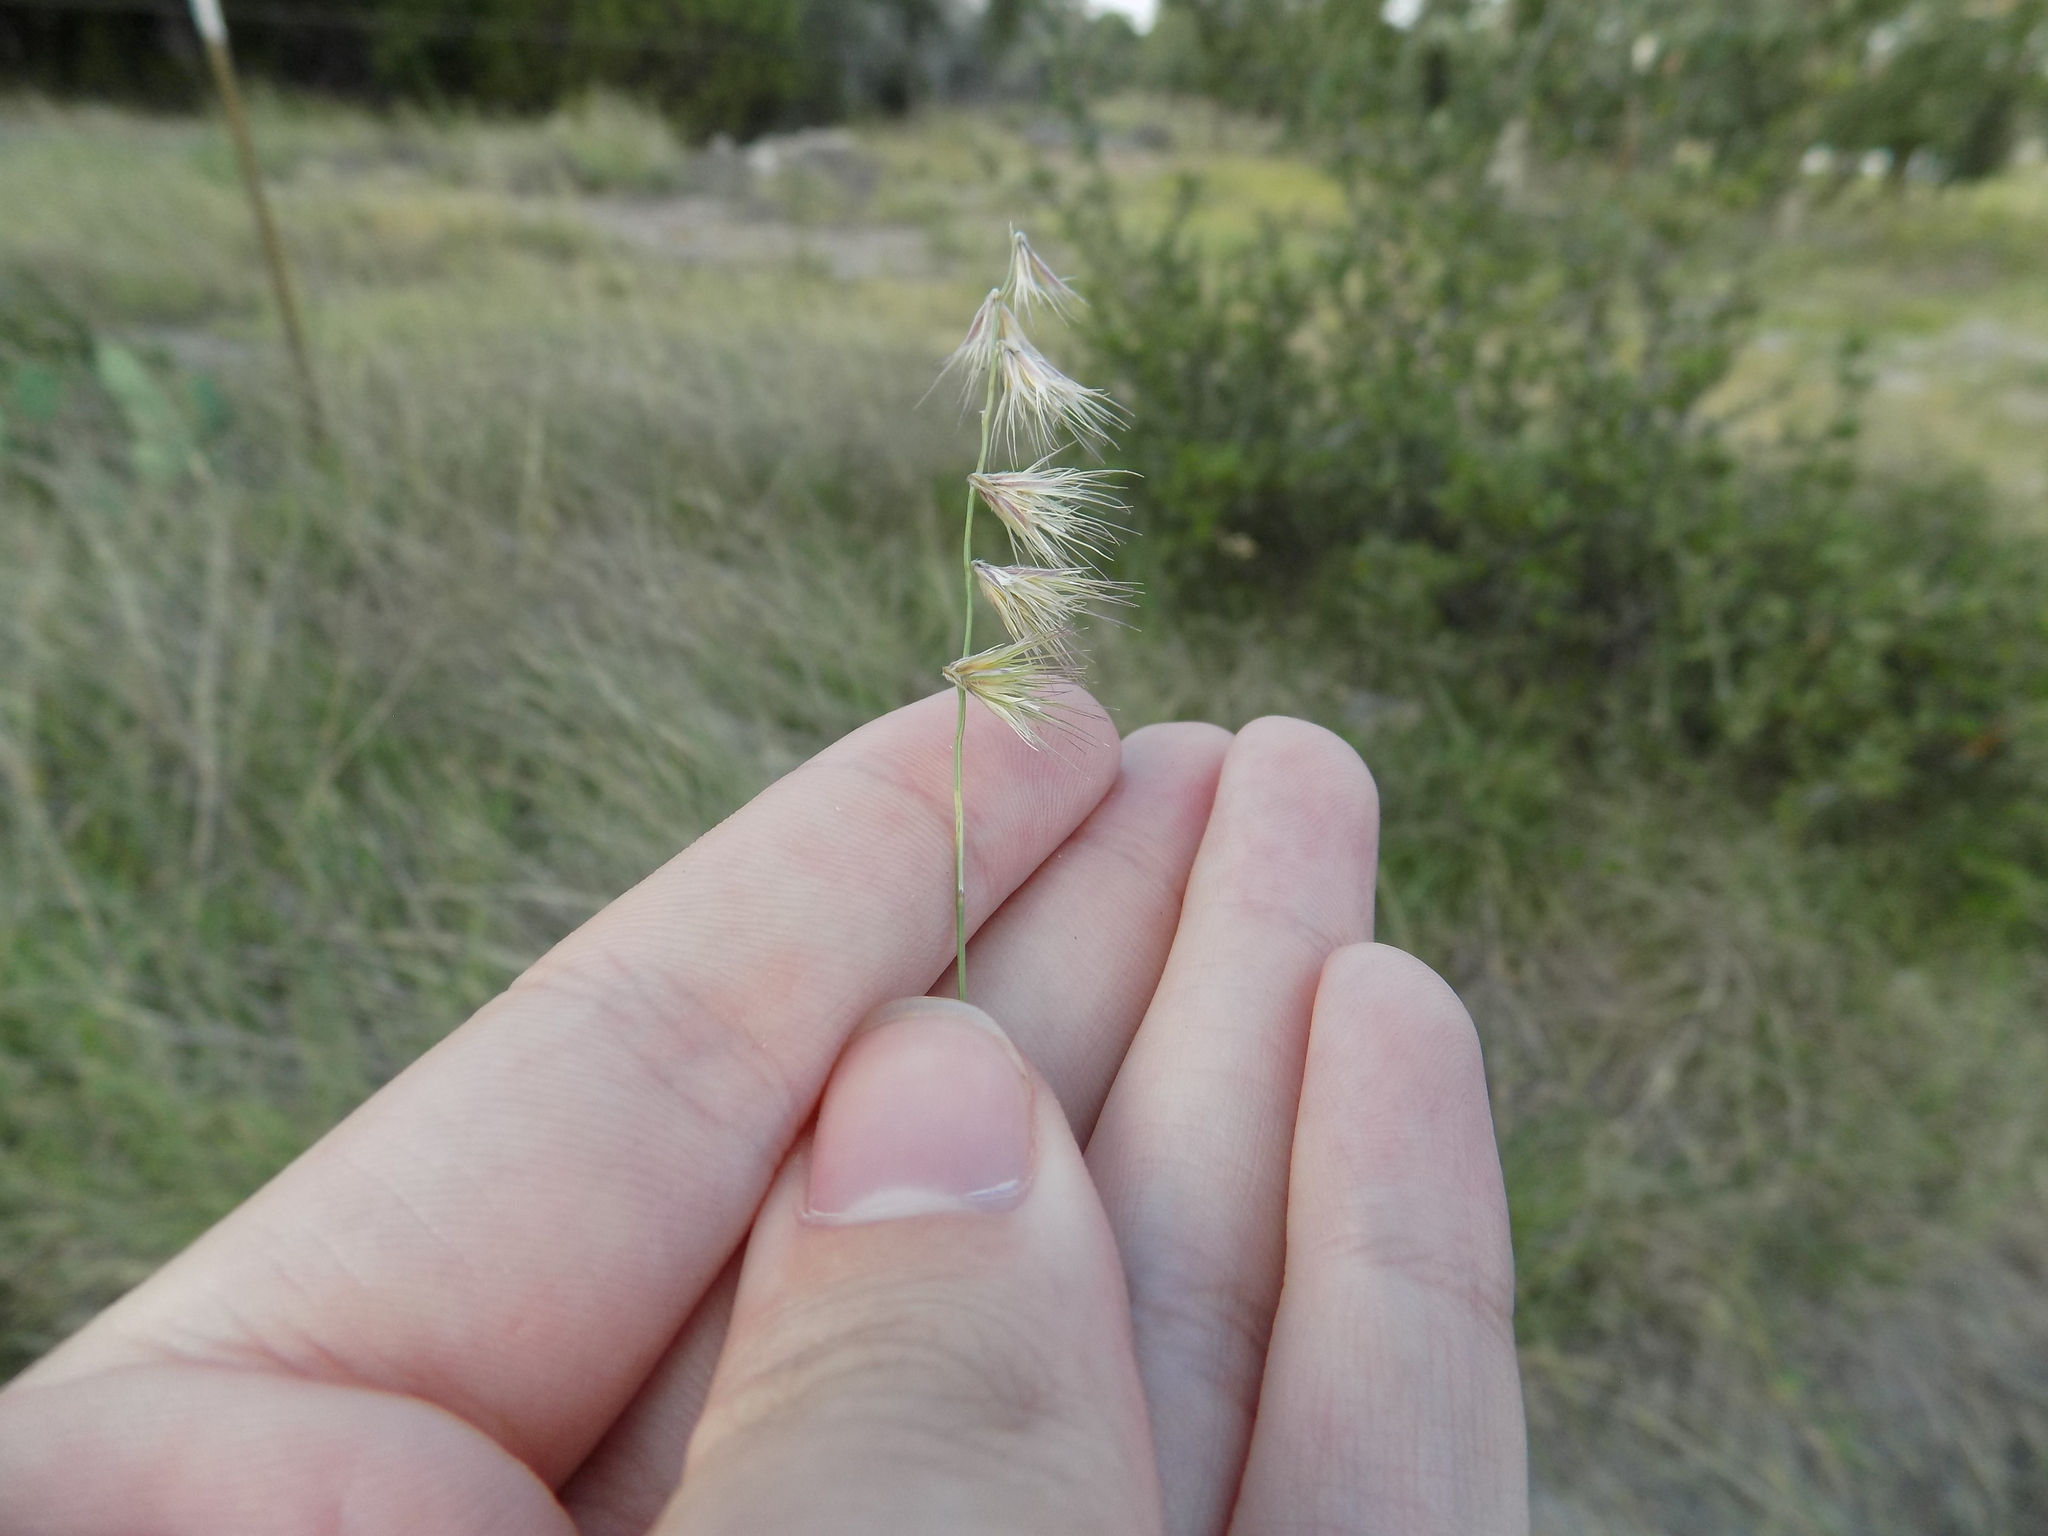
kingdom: Plantae
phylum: Tracheophyta
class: Liliopsida
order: Poales
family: Poaceae
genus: Bouteloua
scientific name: Bouteloua rigidiseta
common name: Texas grama
